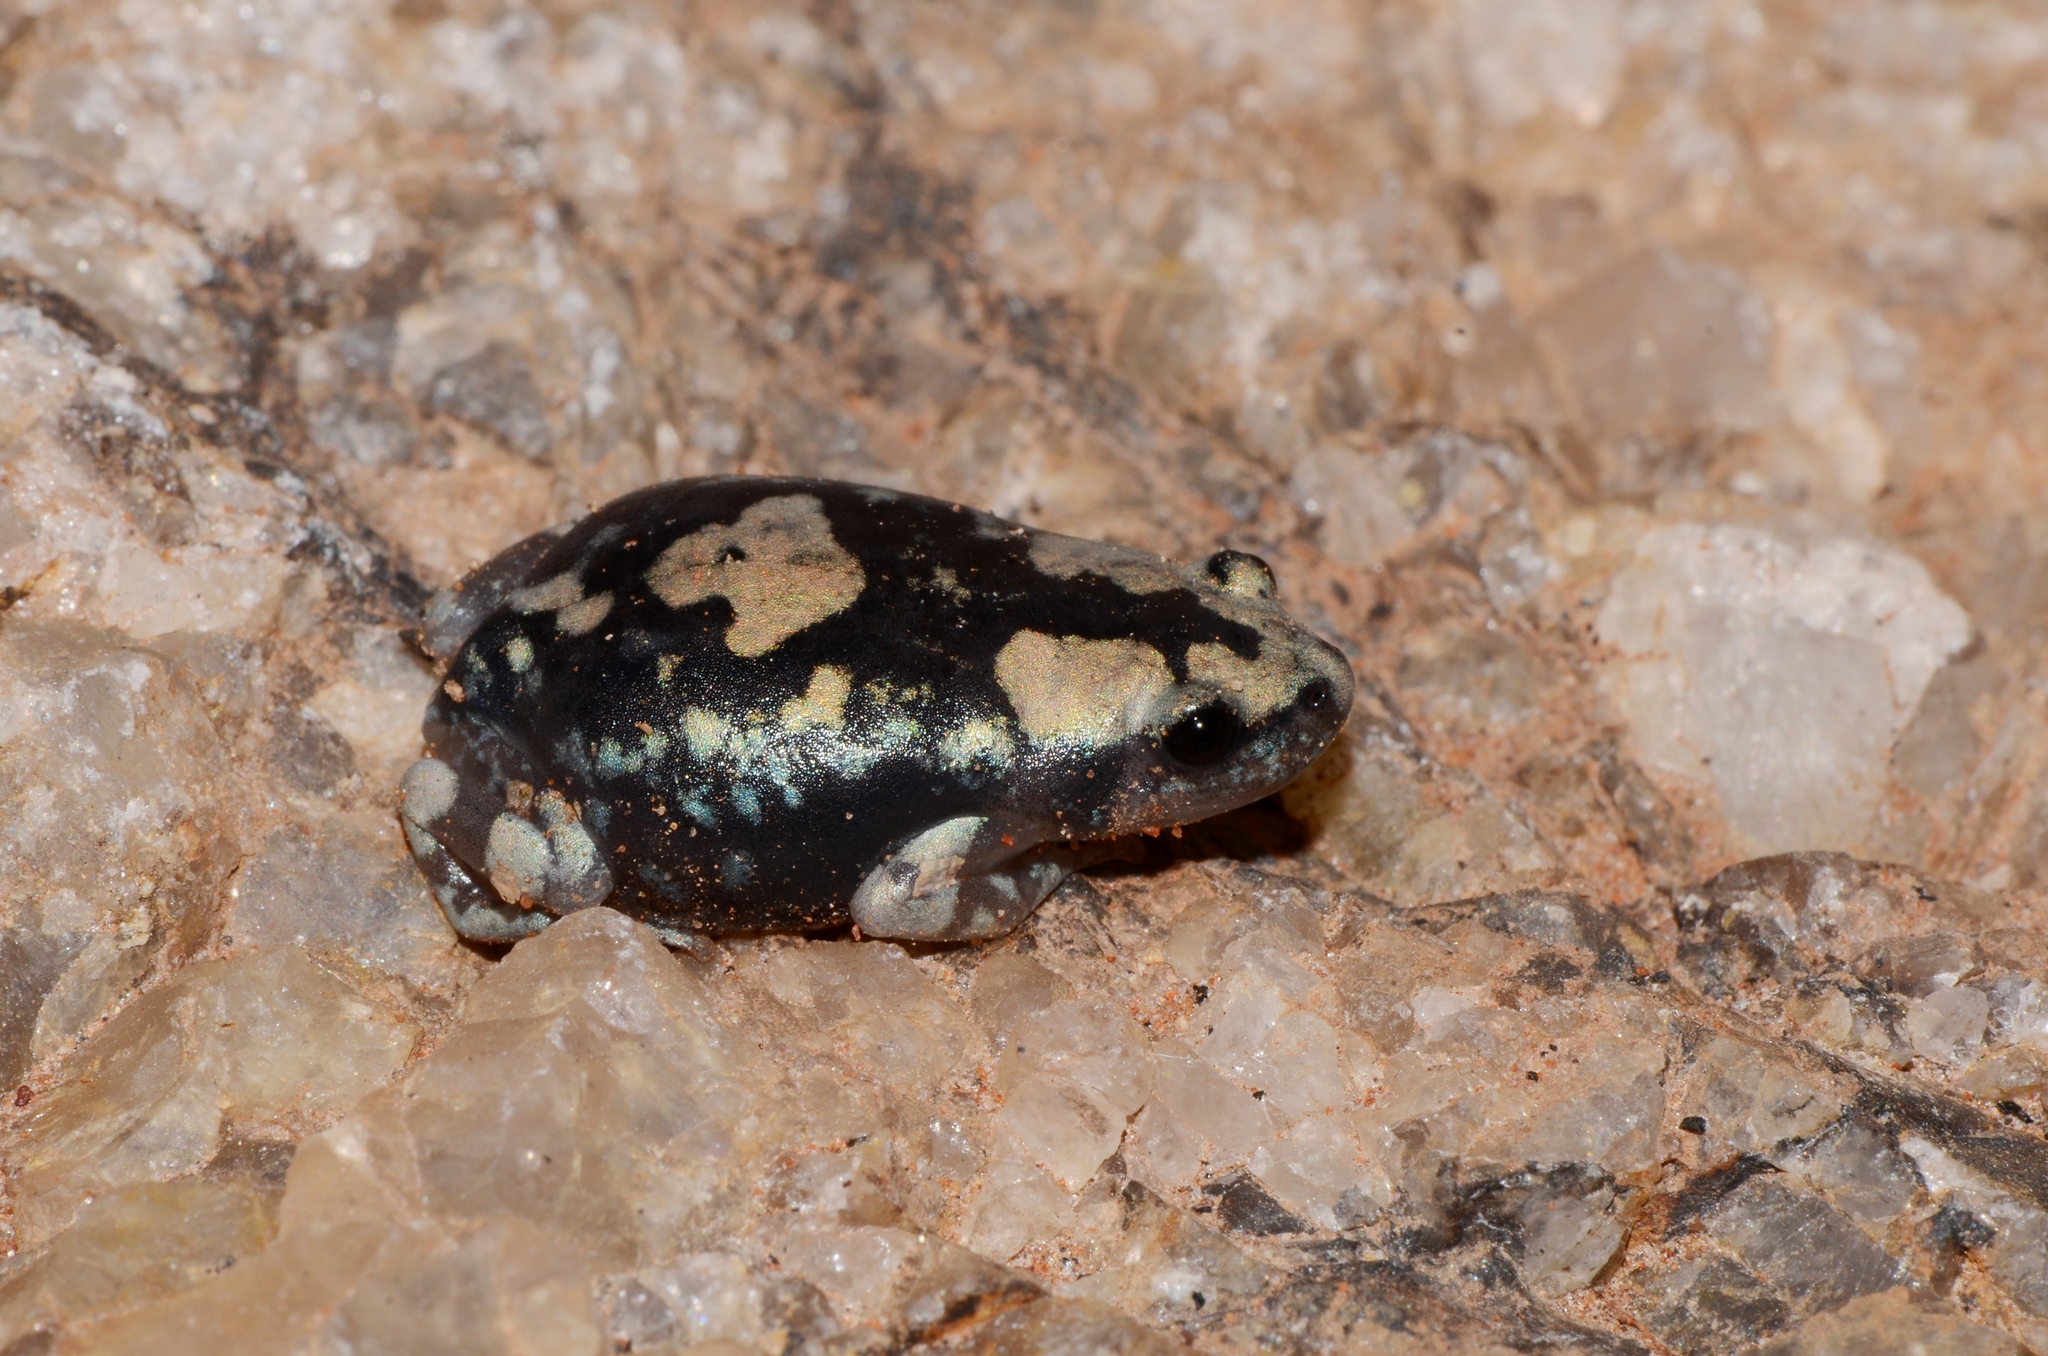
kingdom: Animalia
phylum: Chordata
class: Amphibia
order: Anura
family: Microhylidae
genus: Phrynomantis
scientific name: Phrynomantis annectens
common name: Marbled rubber frog
